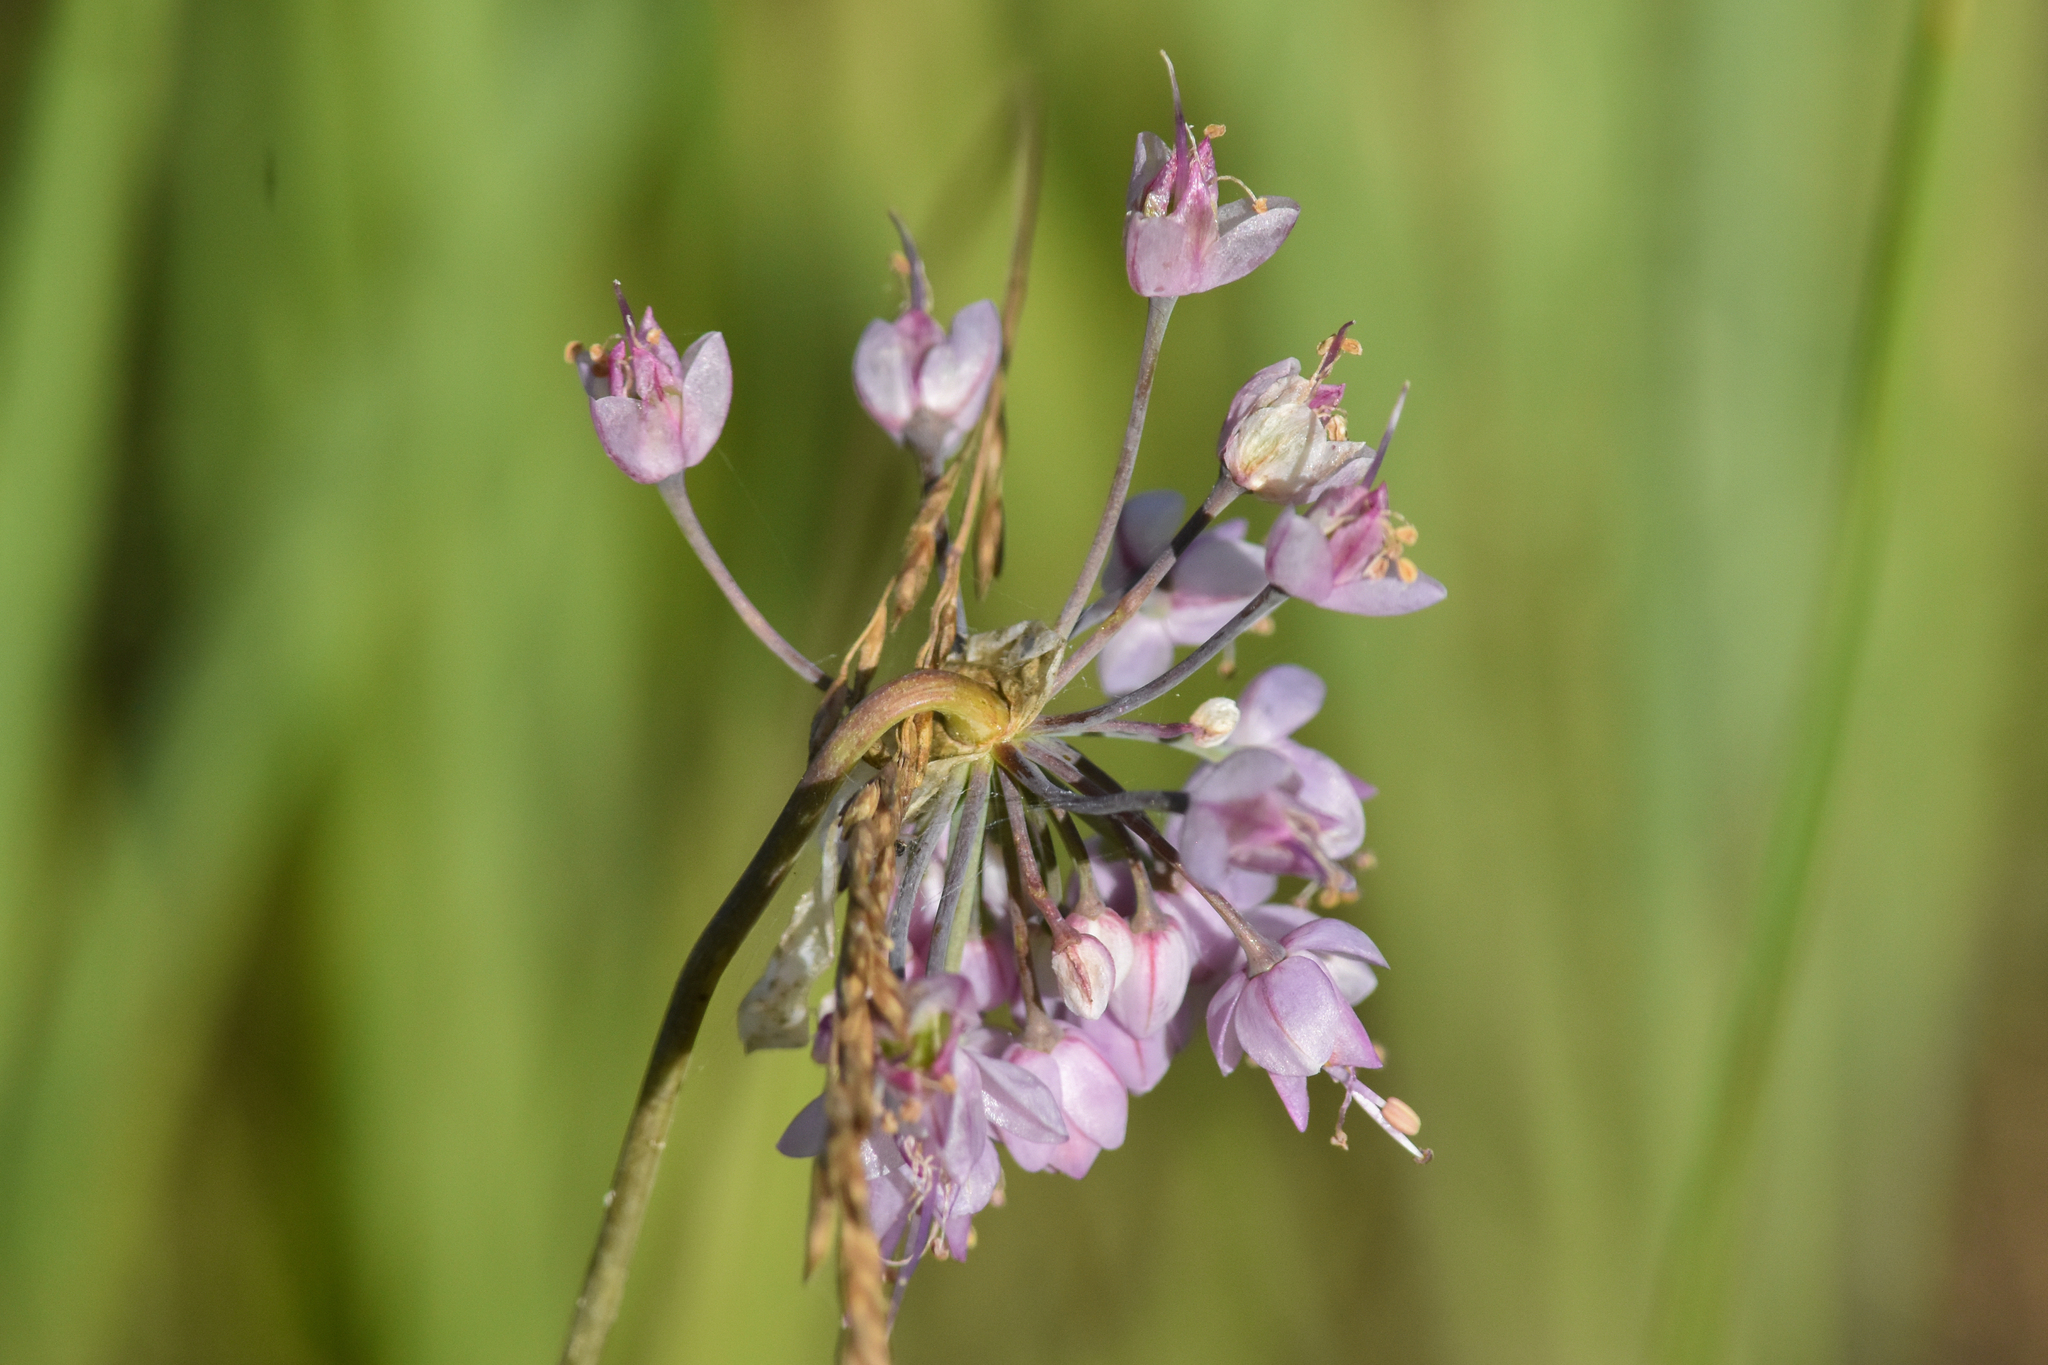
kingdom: Plantae
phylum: Tracheophyta
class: Liliopsida
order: Asparagales
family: Amaryllidaceae
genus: Allium
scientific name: Allium cernuum
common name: Nodding onion
